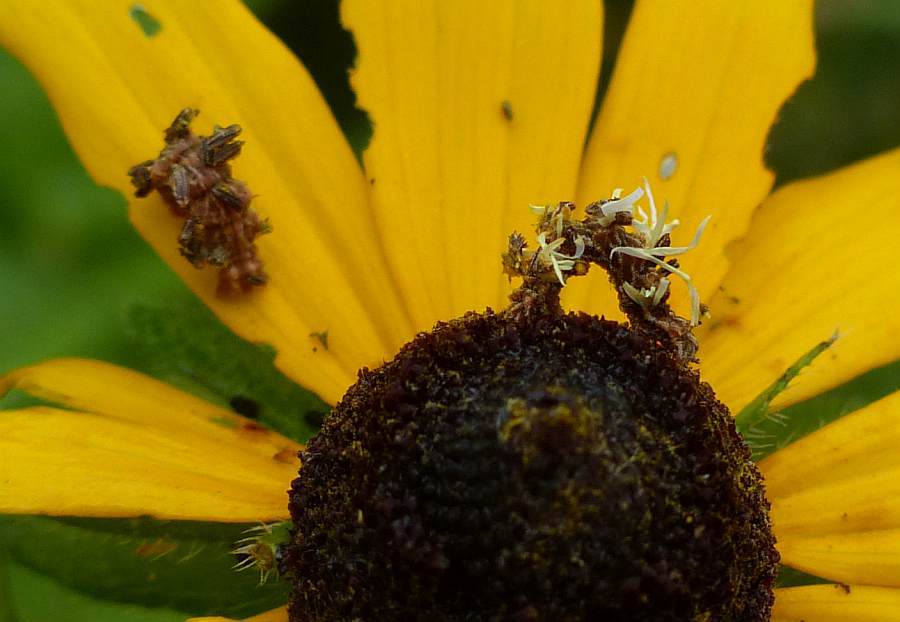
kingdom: Animalia
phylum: Arthropoda
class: Insecta
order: Lepidoptera
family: Geometridae
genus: Synchlora
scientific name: Synchlora aerata
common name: Wavy-lined emerald
